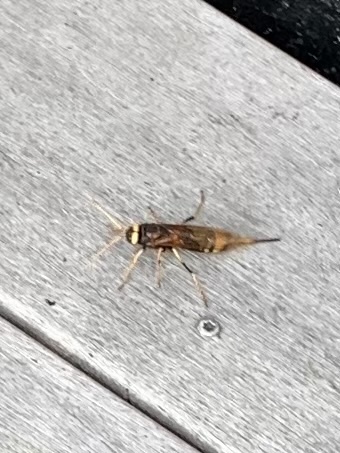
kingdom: Animalia
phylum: Arthropoda
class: Insecta
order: Hymenoptera
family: Siricidae
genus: Urocerus
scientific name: Urocerus augur
